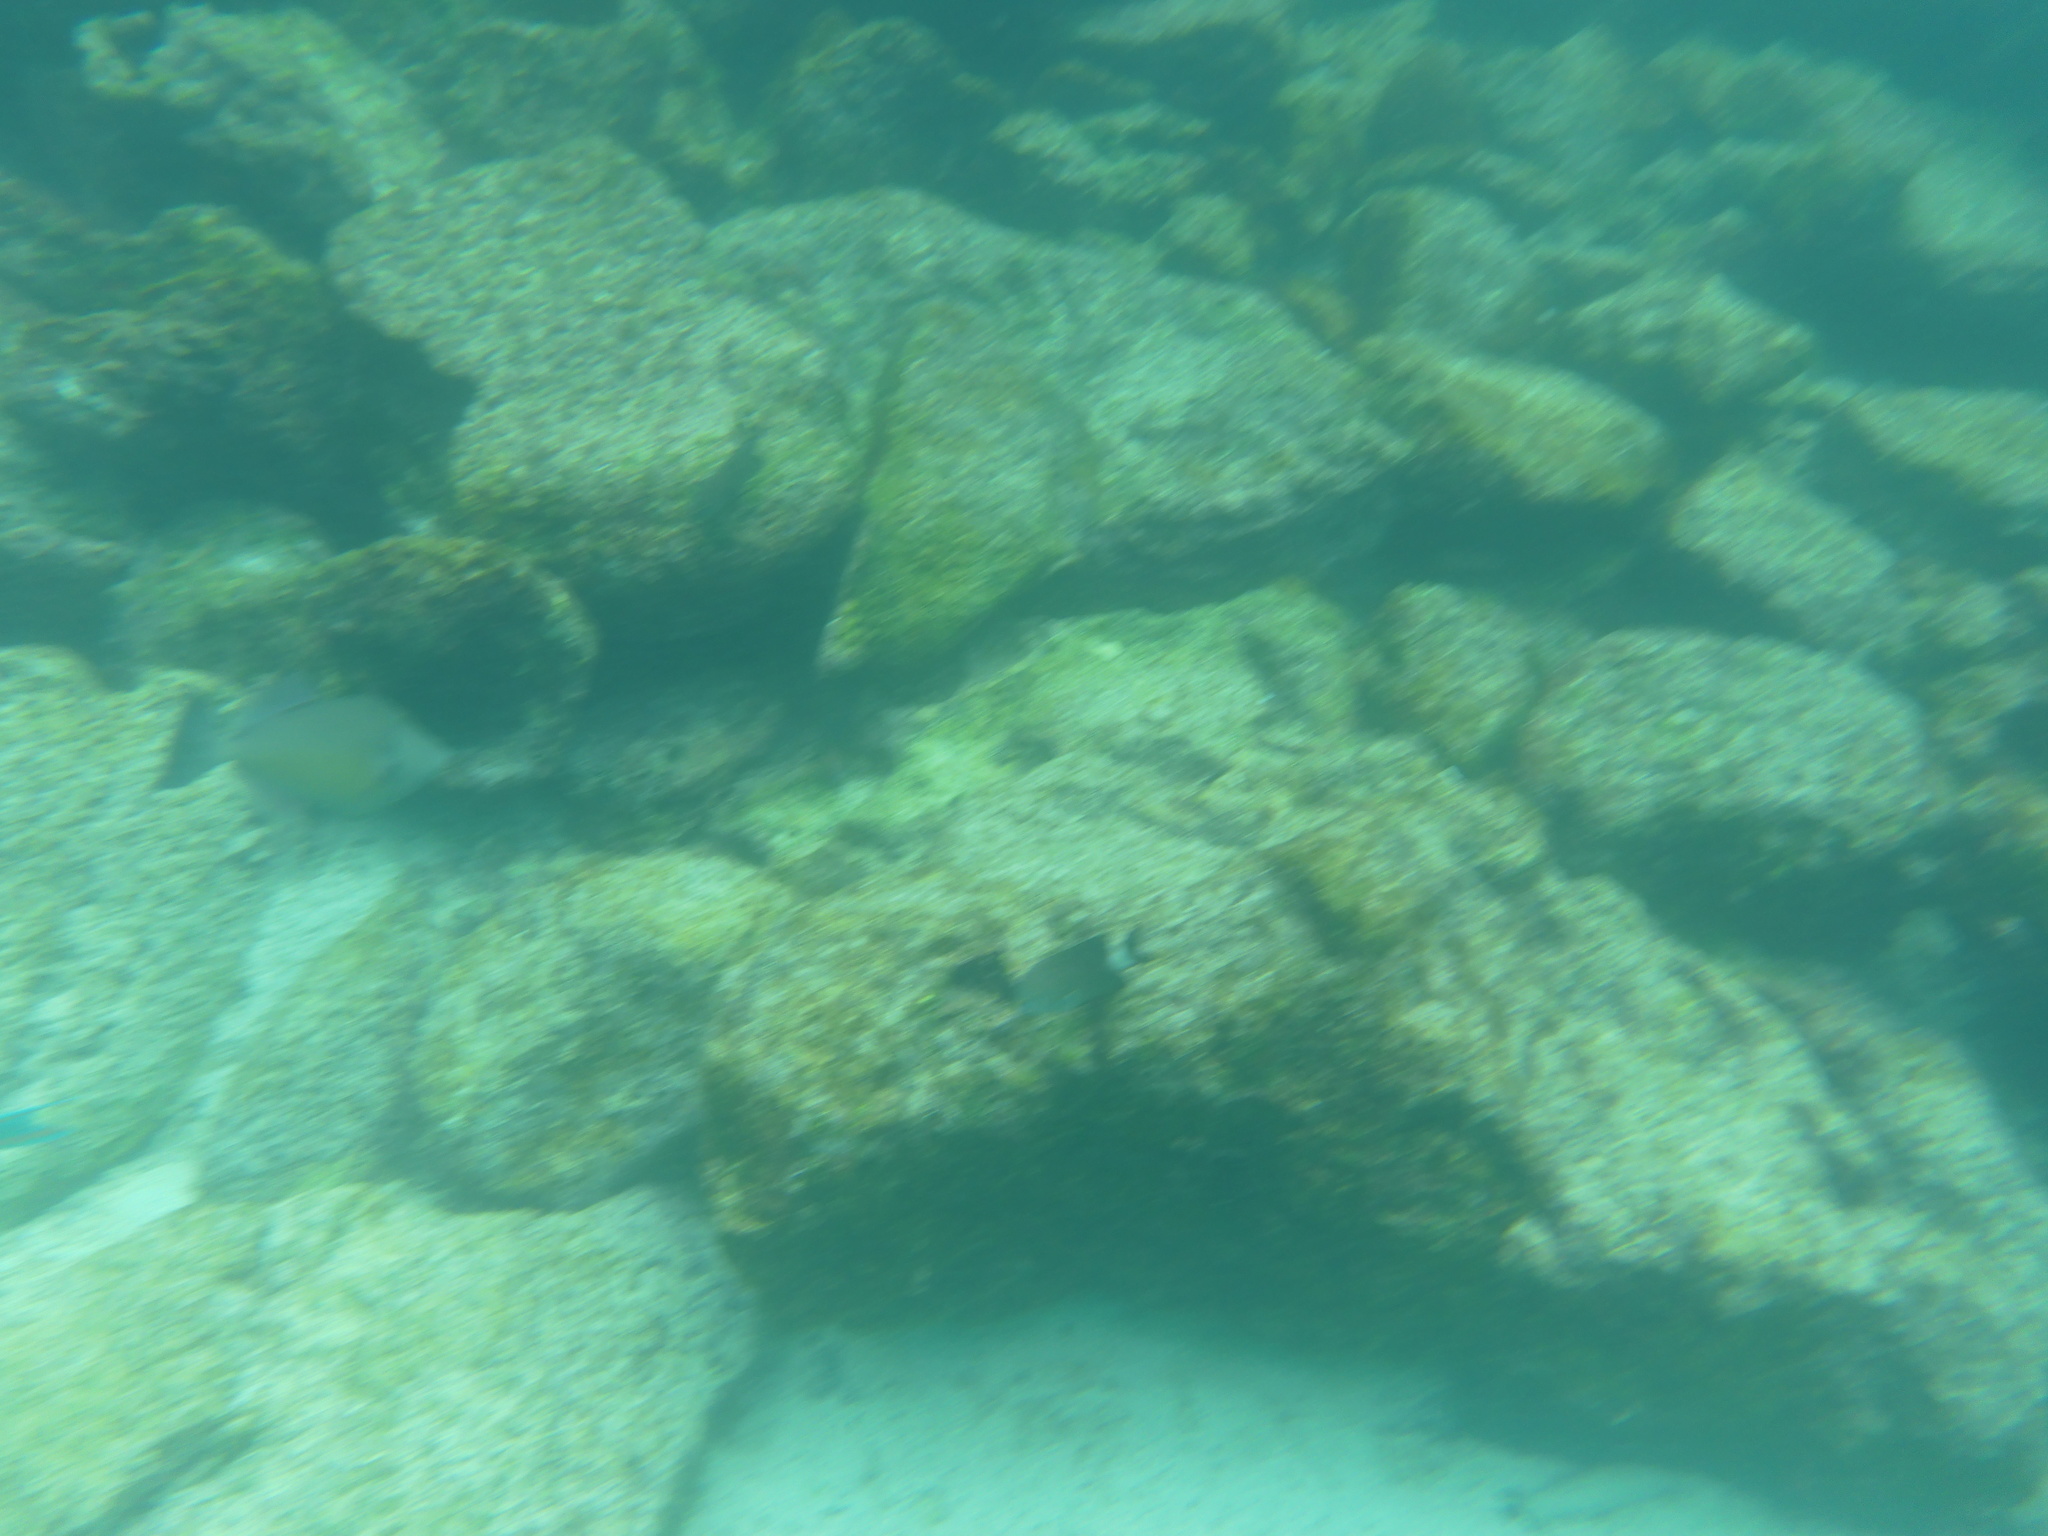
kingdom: Animalia
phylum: Chordata
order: Tetraodontiformes
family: Balistidae
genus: Sufflamen
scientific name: Sufflamen verres
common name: Orangeside triggerfish
